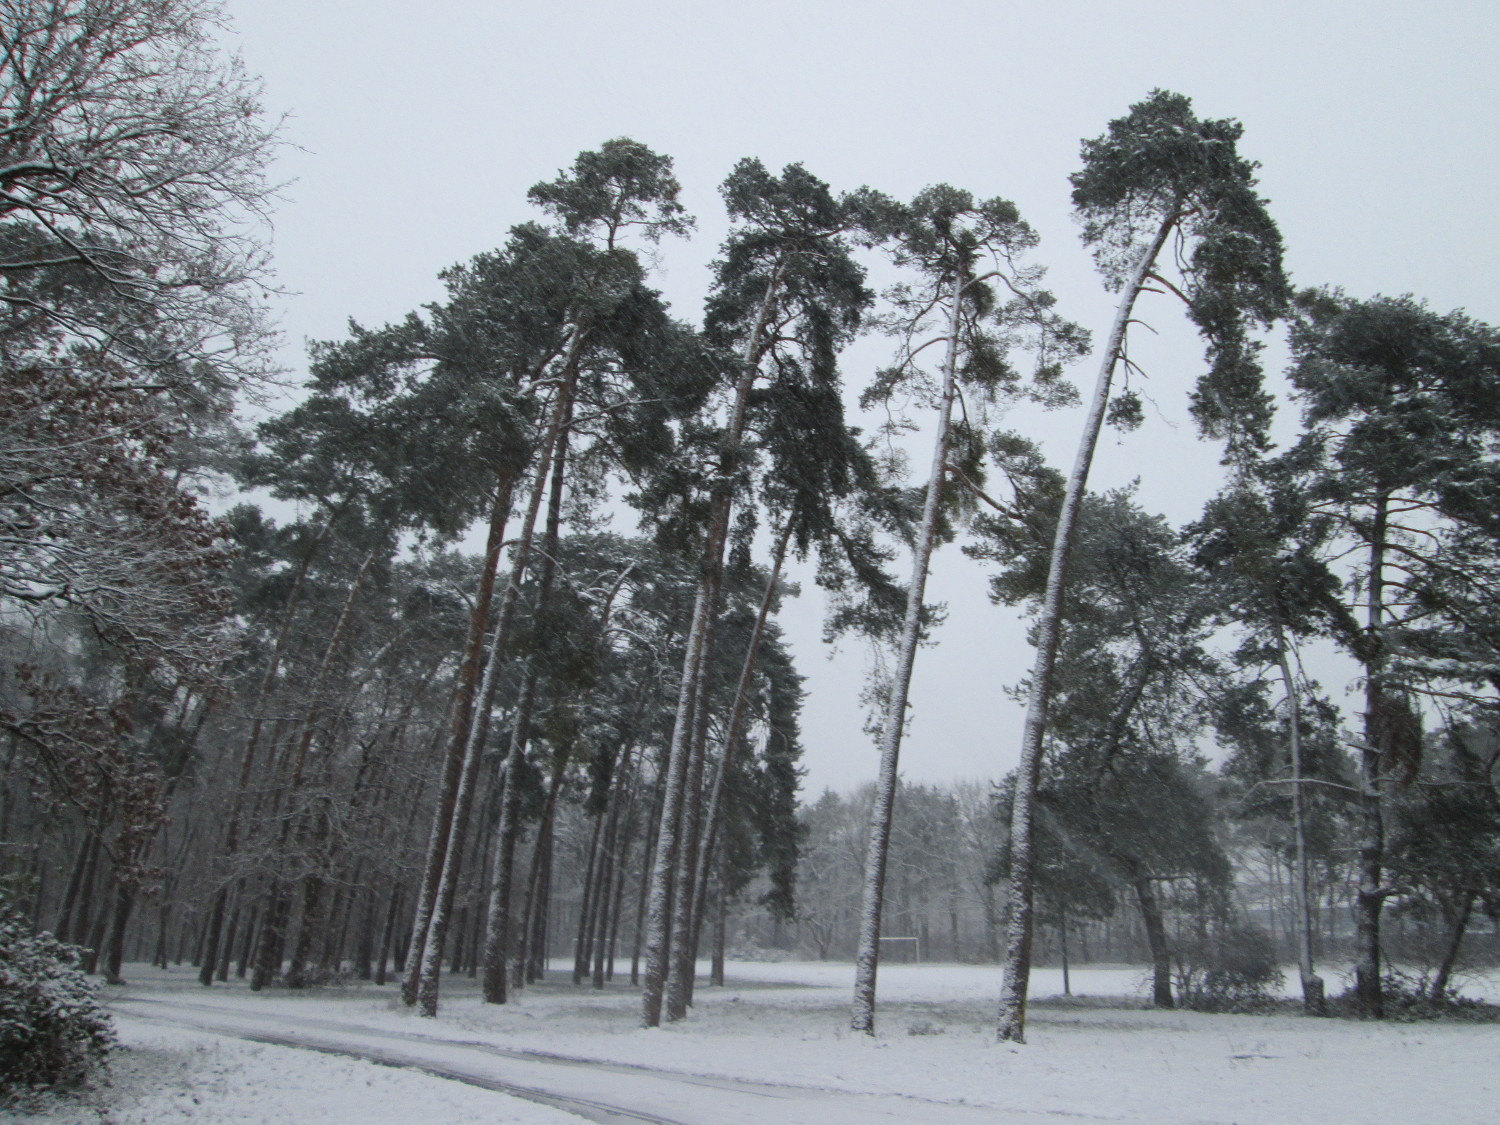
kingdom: Plantae
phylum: Tracheophyta
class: Pinopsida
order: Pinales
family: Pinaceae
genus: Pinus
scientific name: Pinus sylvestris
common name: Scots pine
